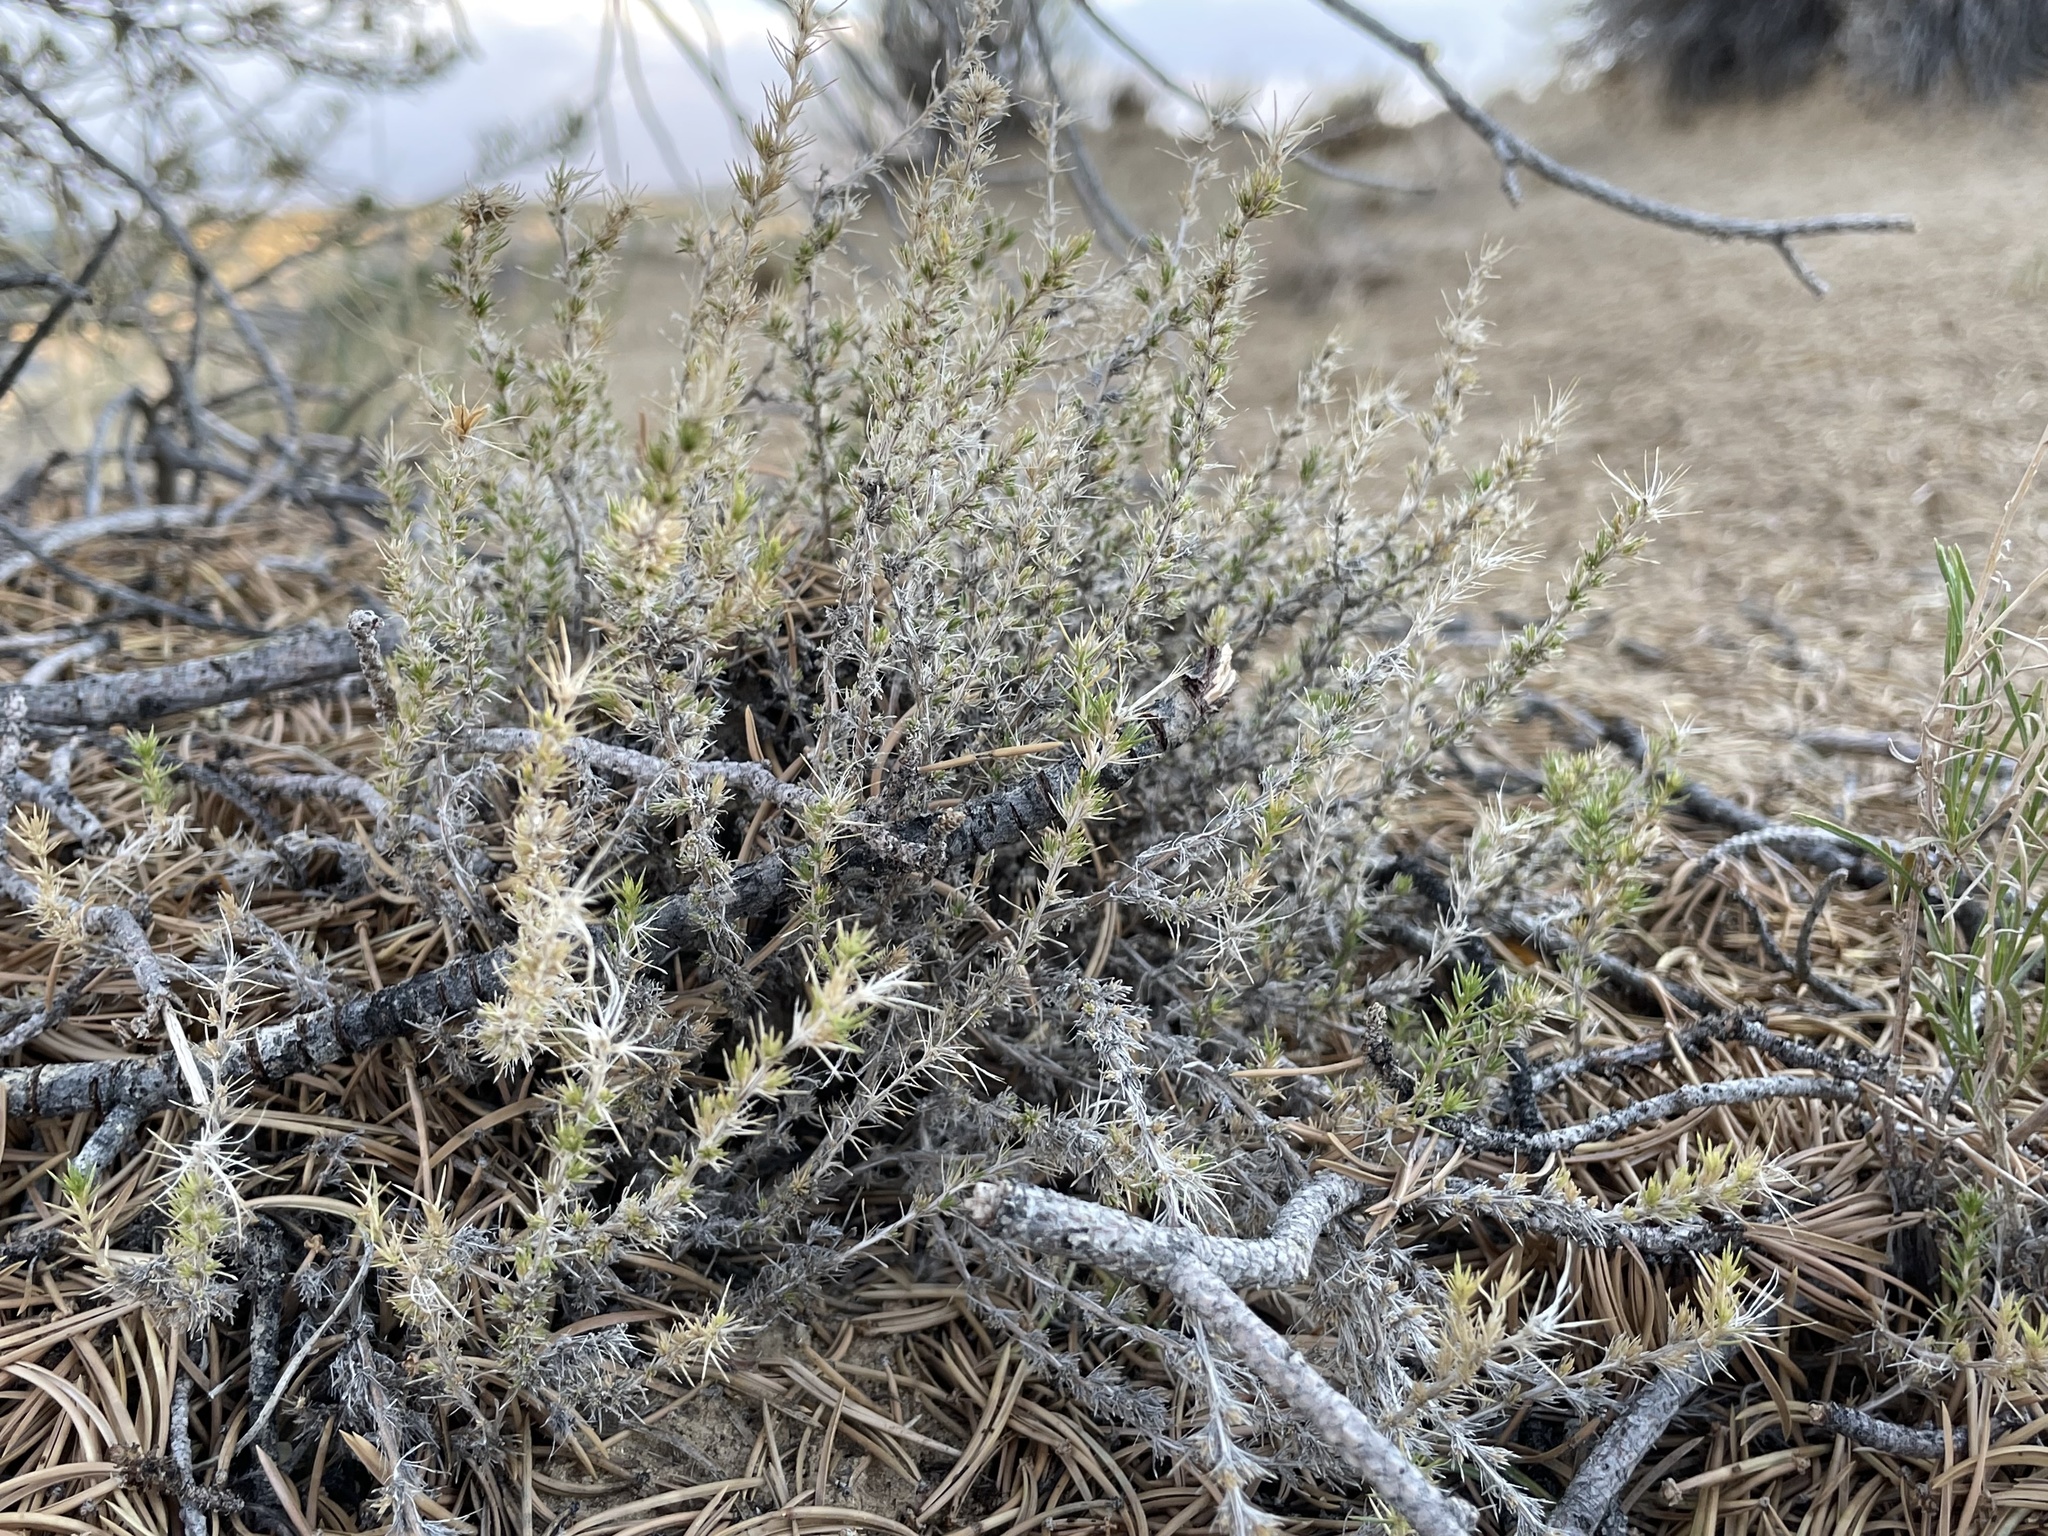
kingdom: Plantae
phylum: Tracheophyta
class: Magnoliopsida
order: Ericales
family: Polemoniaceae
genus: Linanthus
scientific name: Linanthus pungens
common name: Granite prickly phlox
